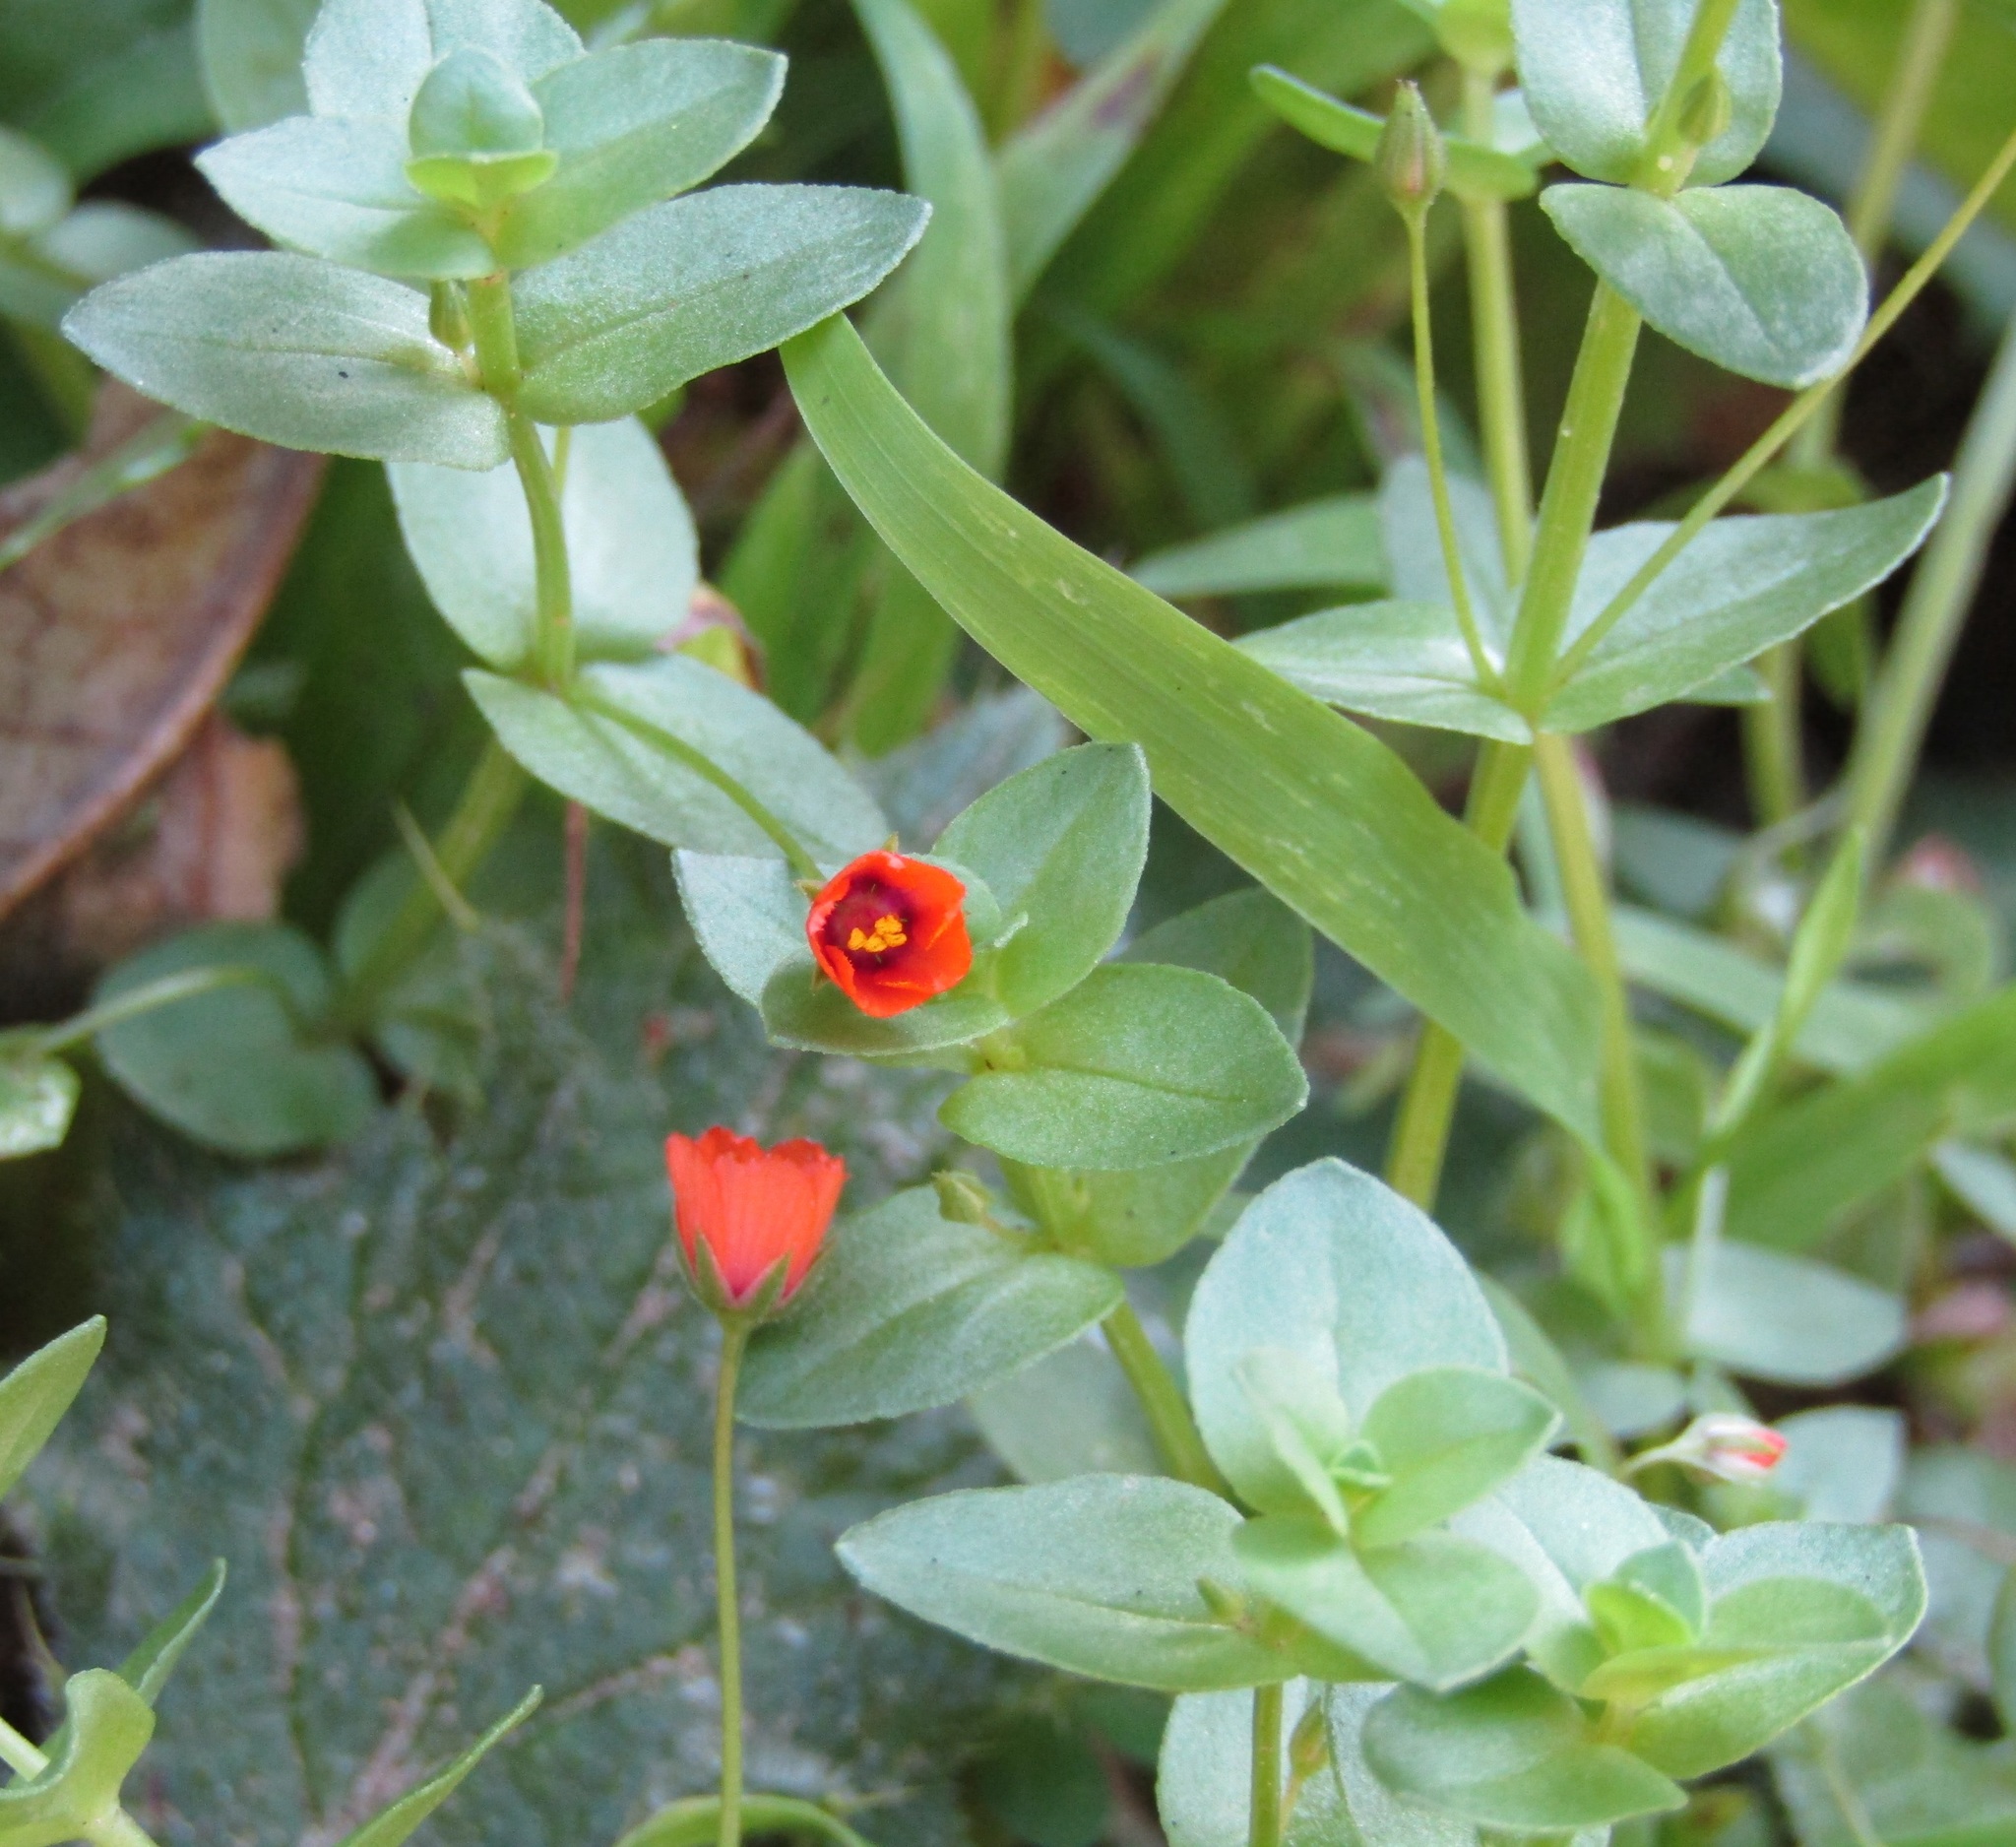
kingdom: Plantae
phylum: Tracheophyta
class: Magnoliopsida
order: Ericales
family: Primulaceae
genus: Lysimachia
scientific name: Lysimachia arvensis
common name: Scarlet pimpernel
